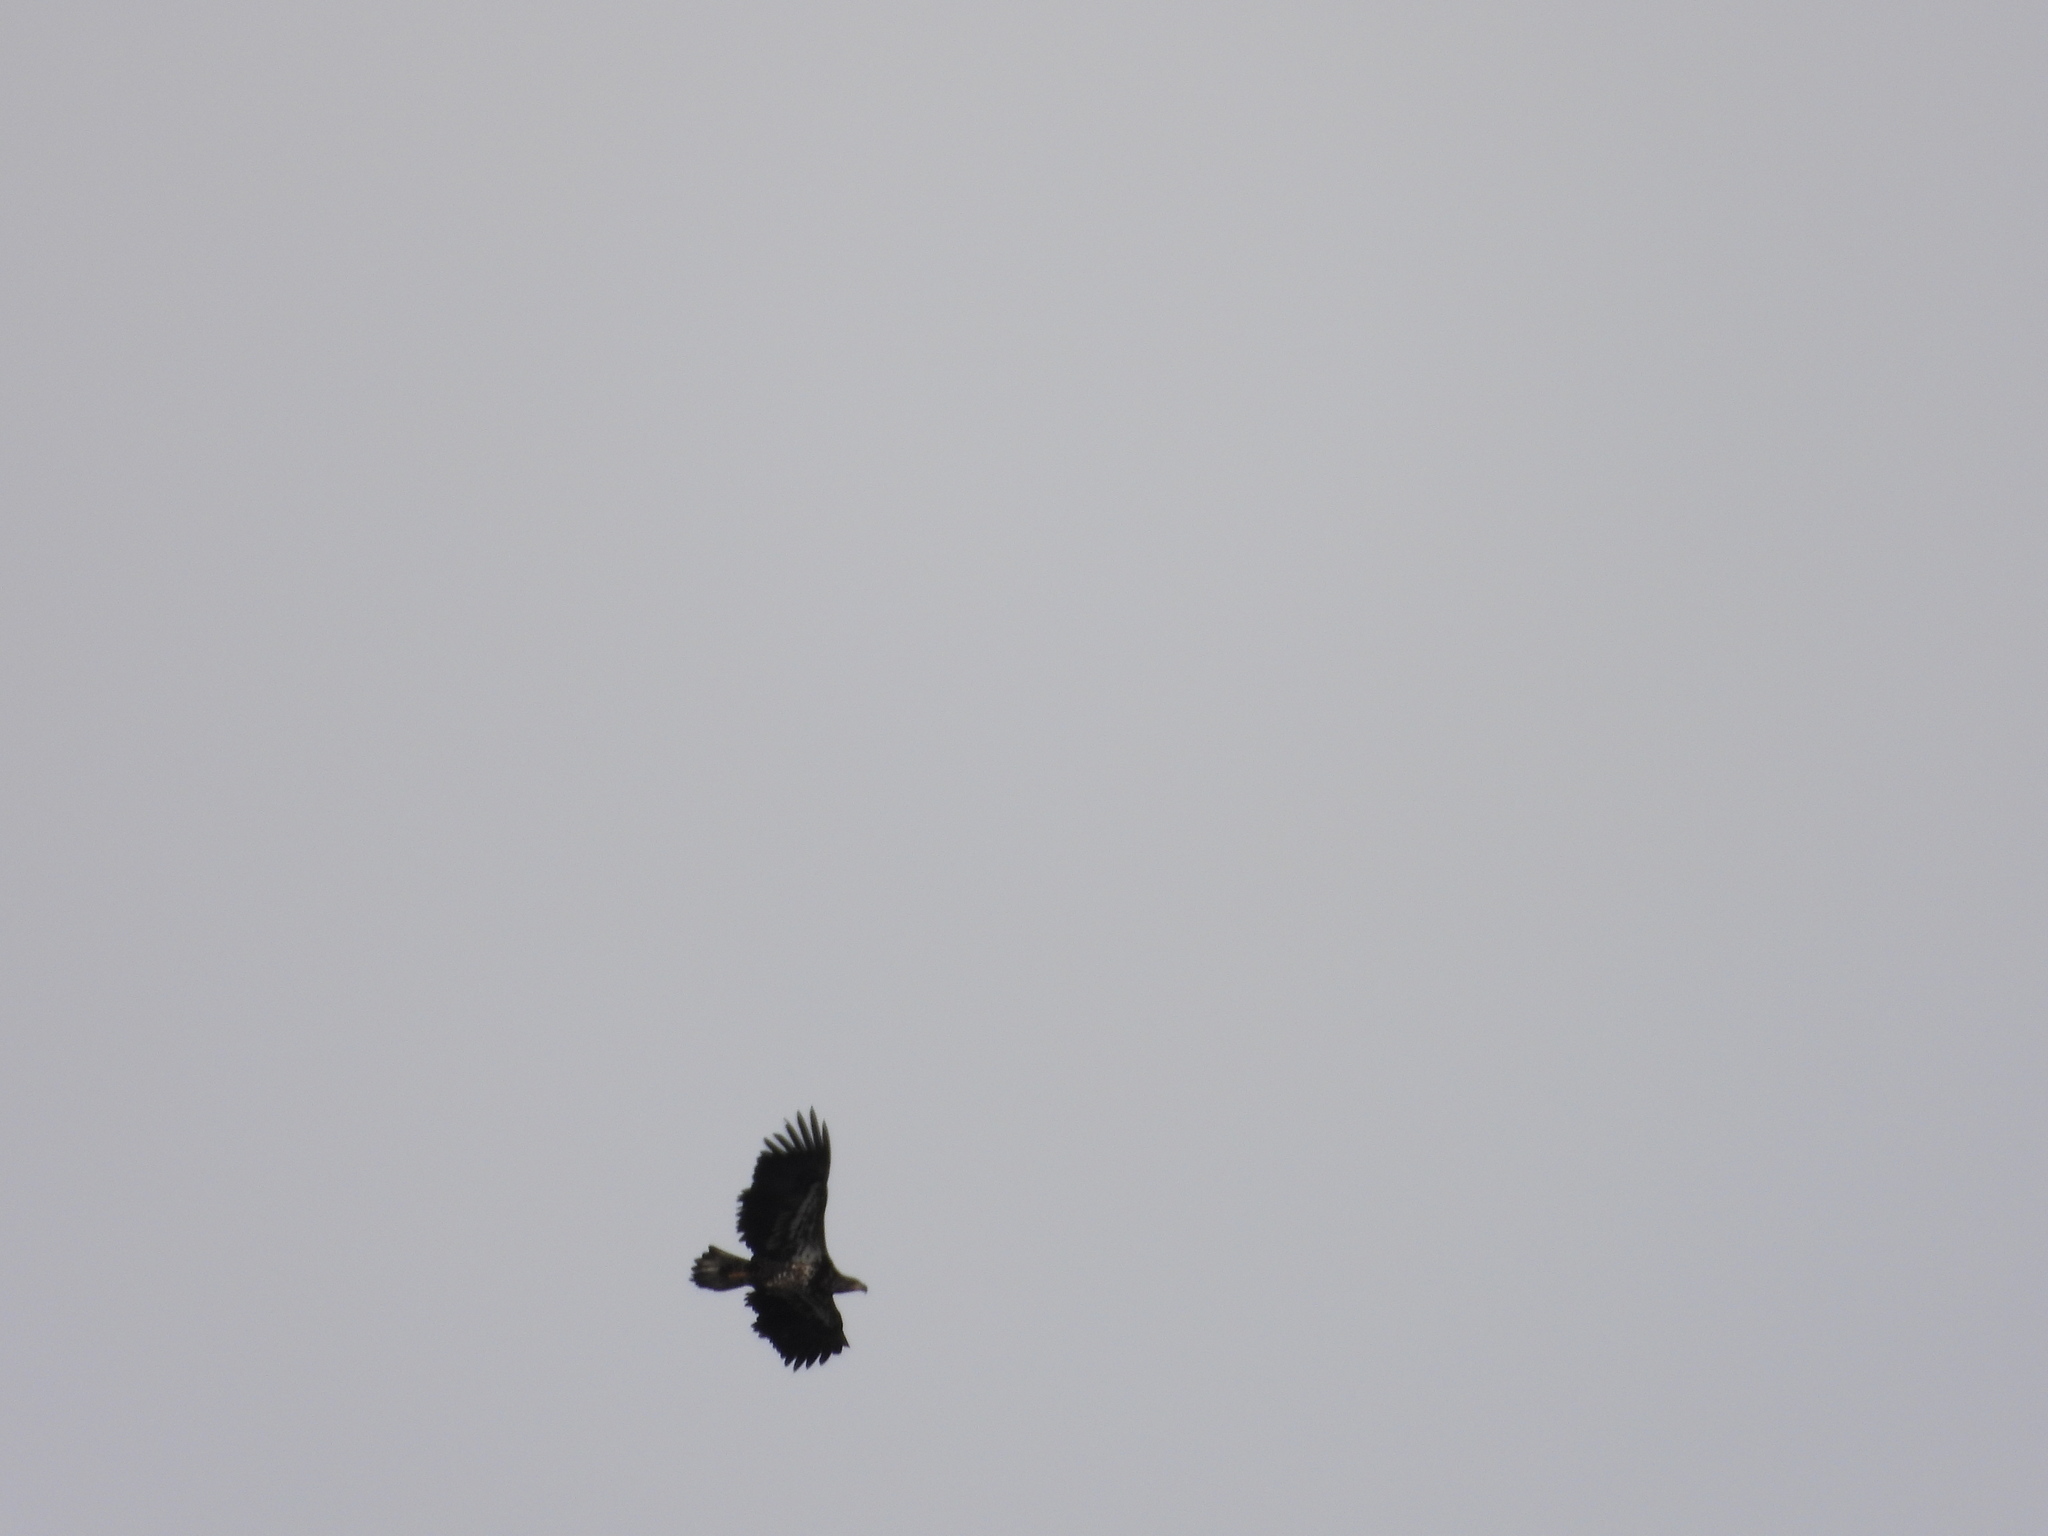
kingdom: Animalia
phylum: Chordata
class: Aves
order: Accipitriformes
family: Accipitridae
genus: Haliaeetus
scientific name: Haliaeetus leucocephalus
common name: Bald eagle
